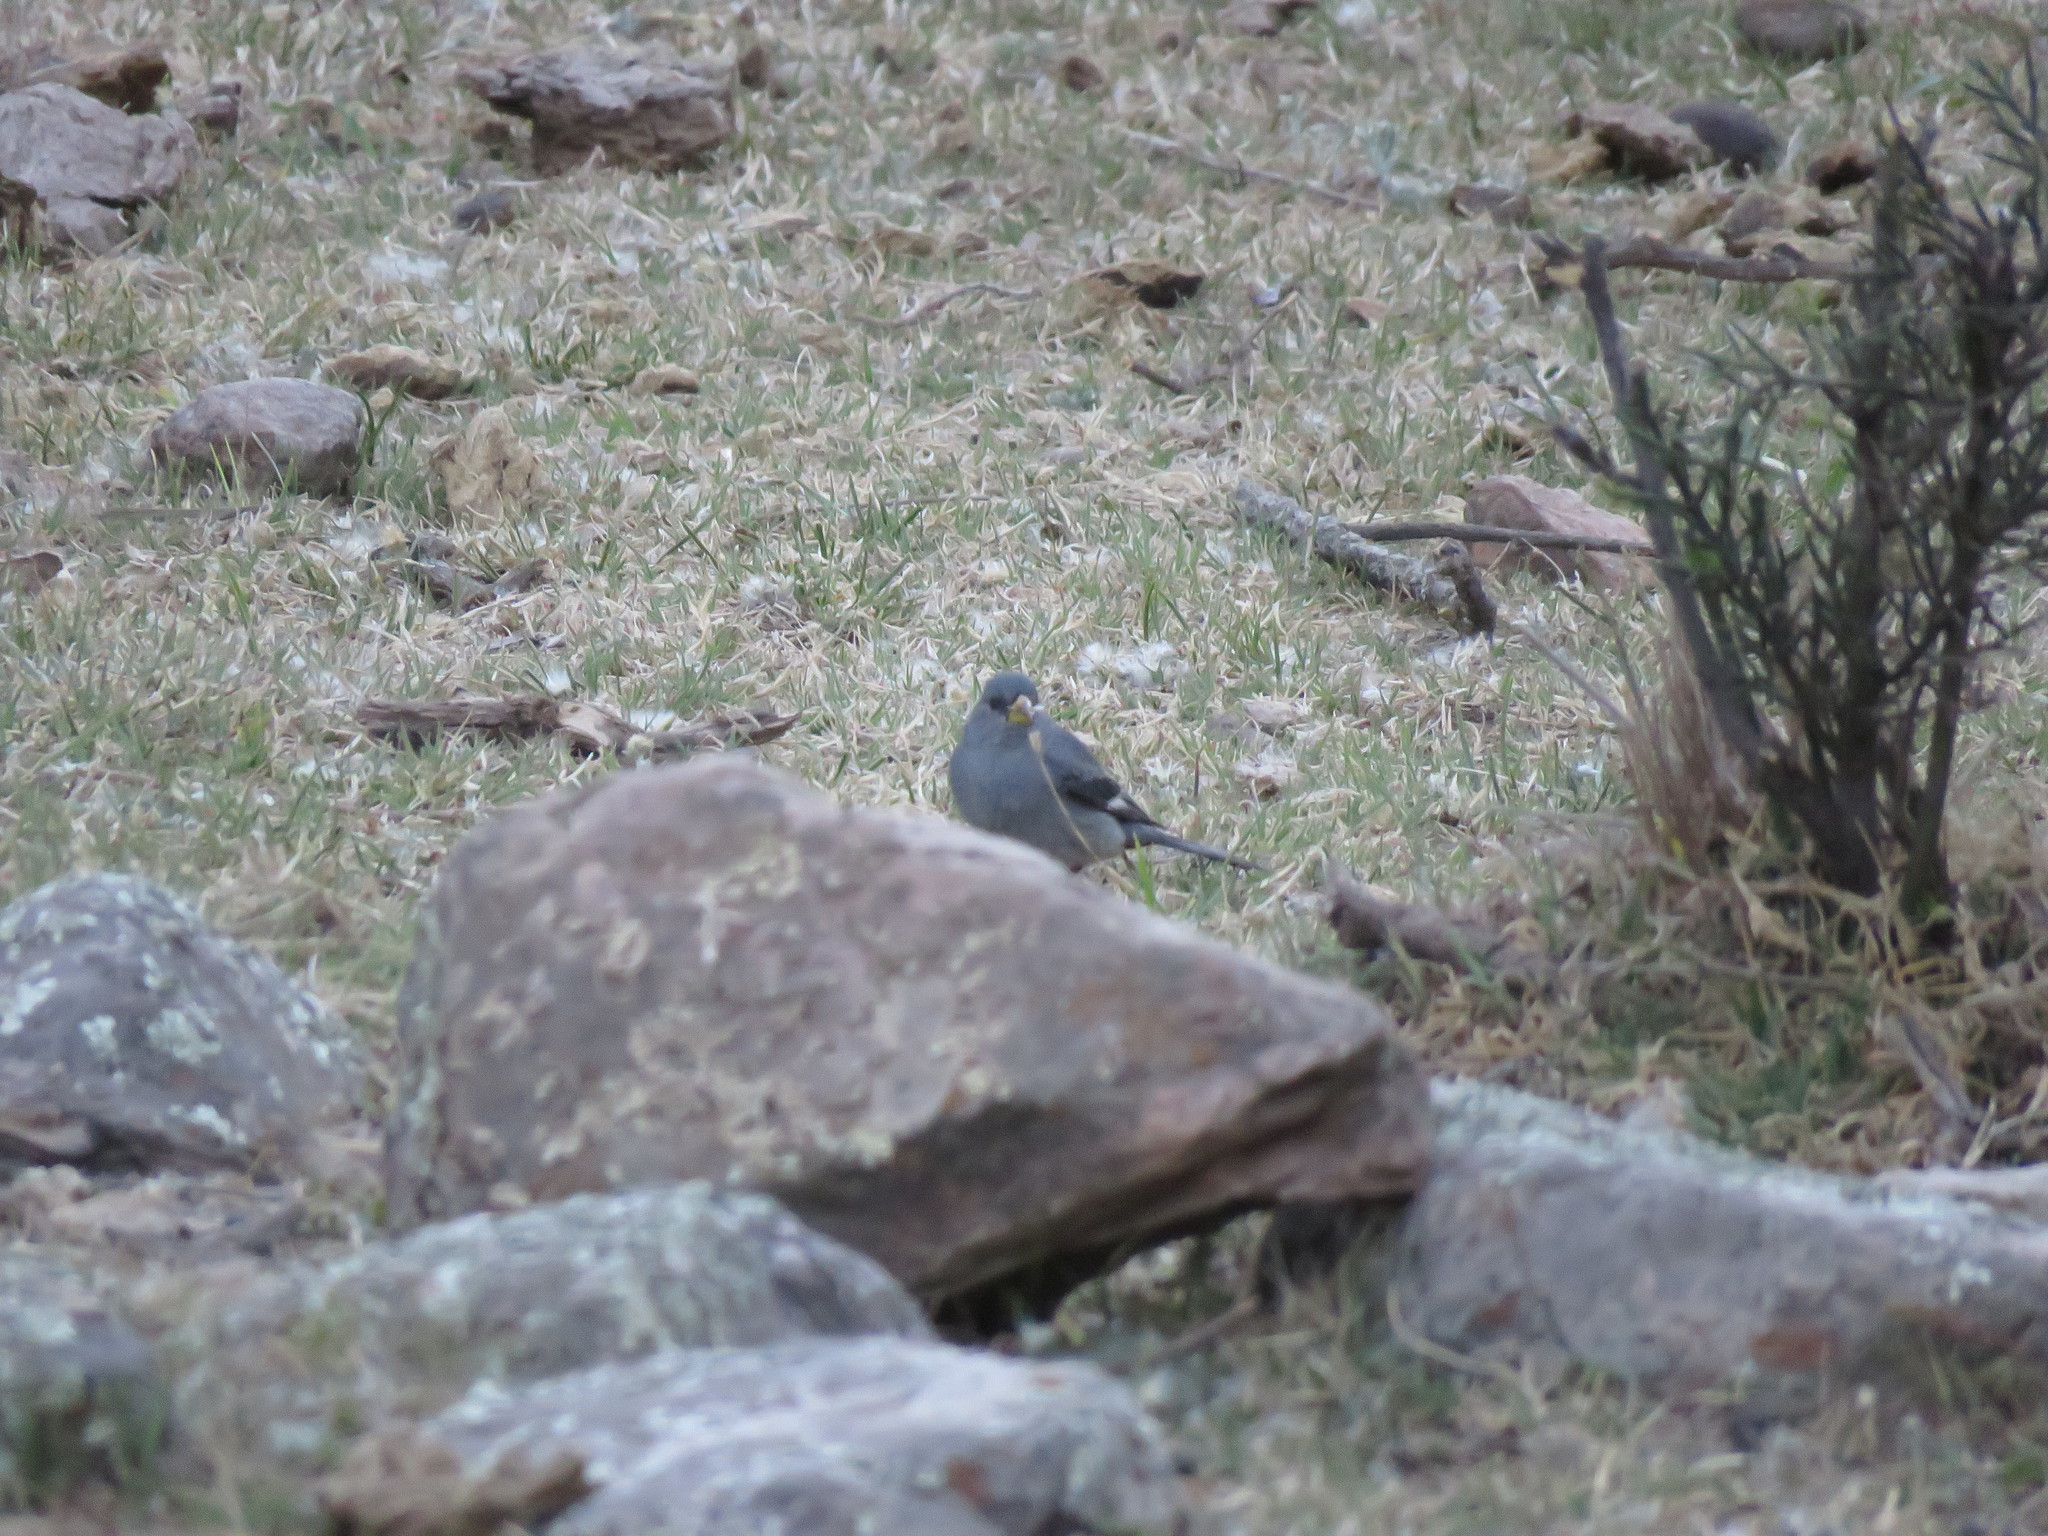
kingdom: Animalia
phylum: Chordata
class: Aves
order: Passeriformes
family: Thraupidae
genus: Catamenia
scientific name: Catamenia analis
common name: Band-tailed seedeater
